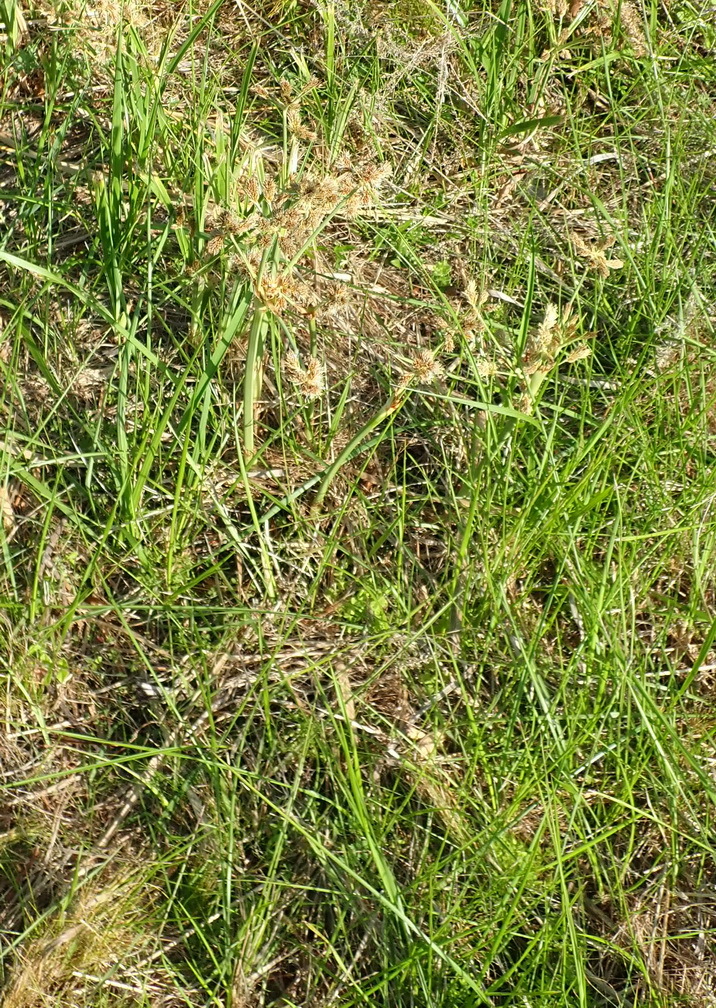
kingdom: Plantae
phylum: Tracheophyta
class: Liliopsida
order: Poales
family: Cyperaceae
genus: Cyperus
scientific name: Cyperus thunbergii
